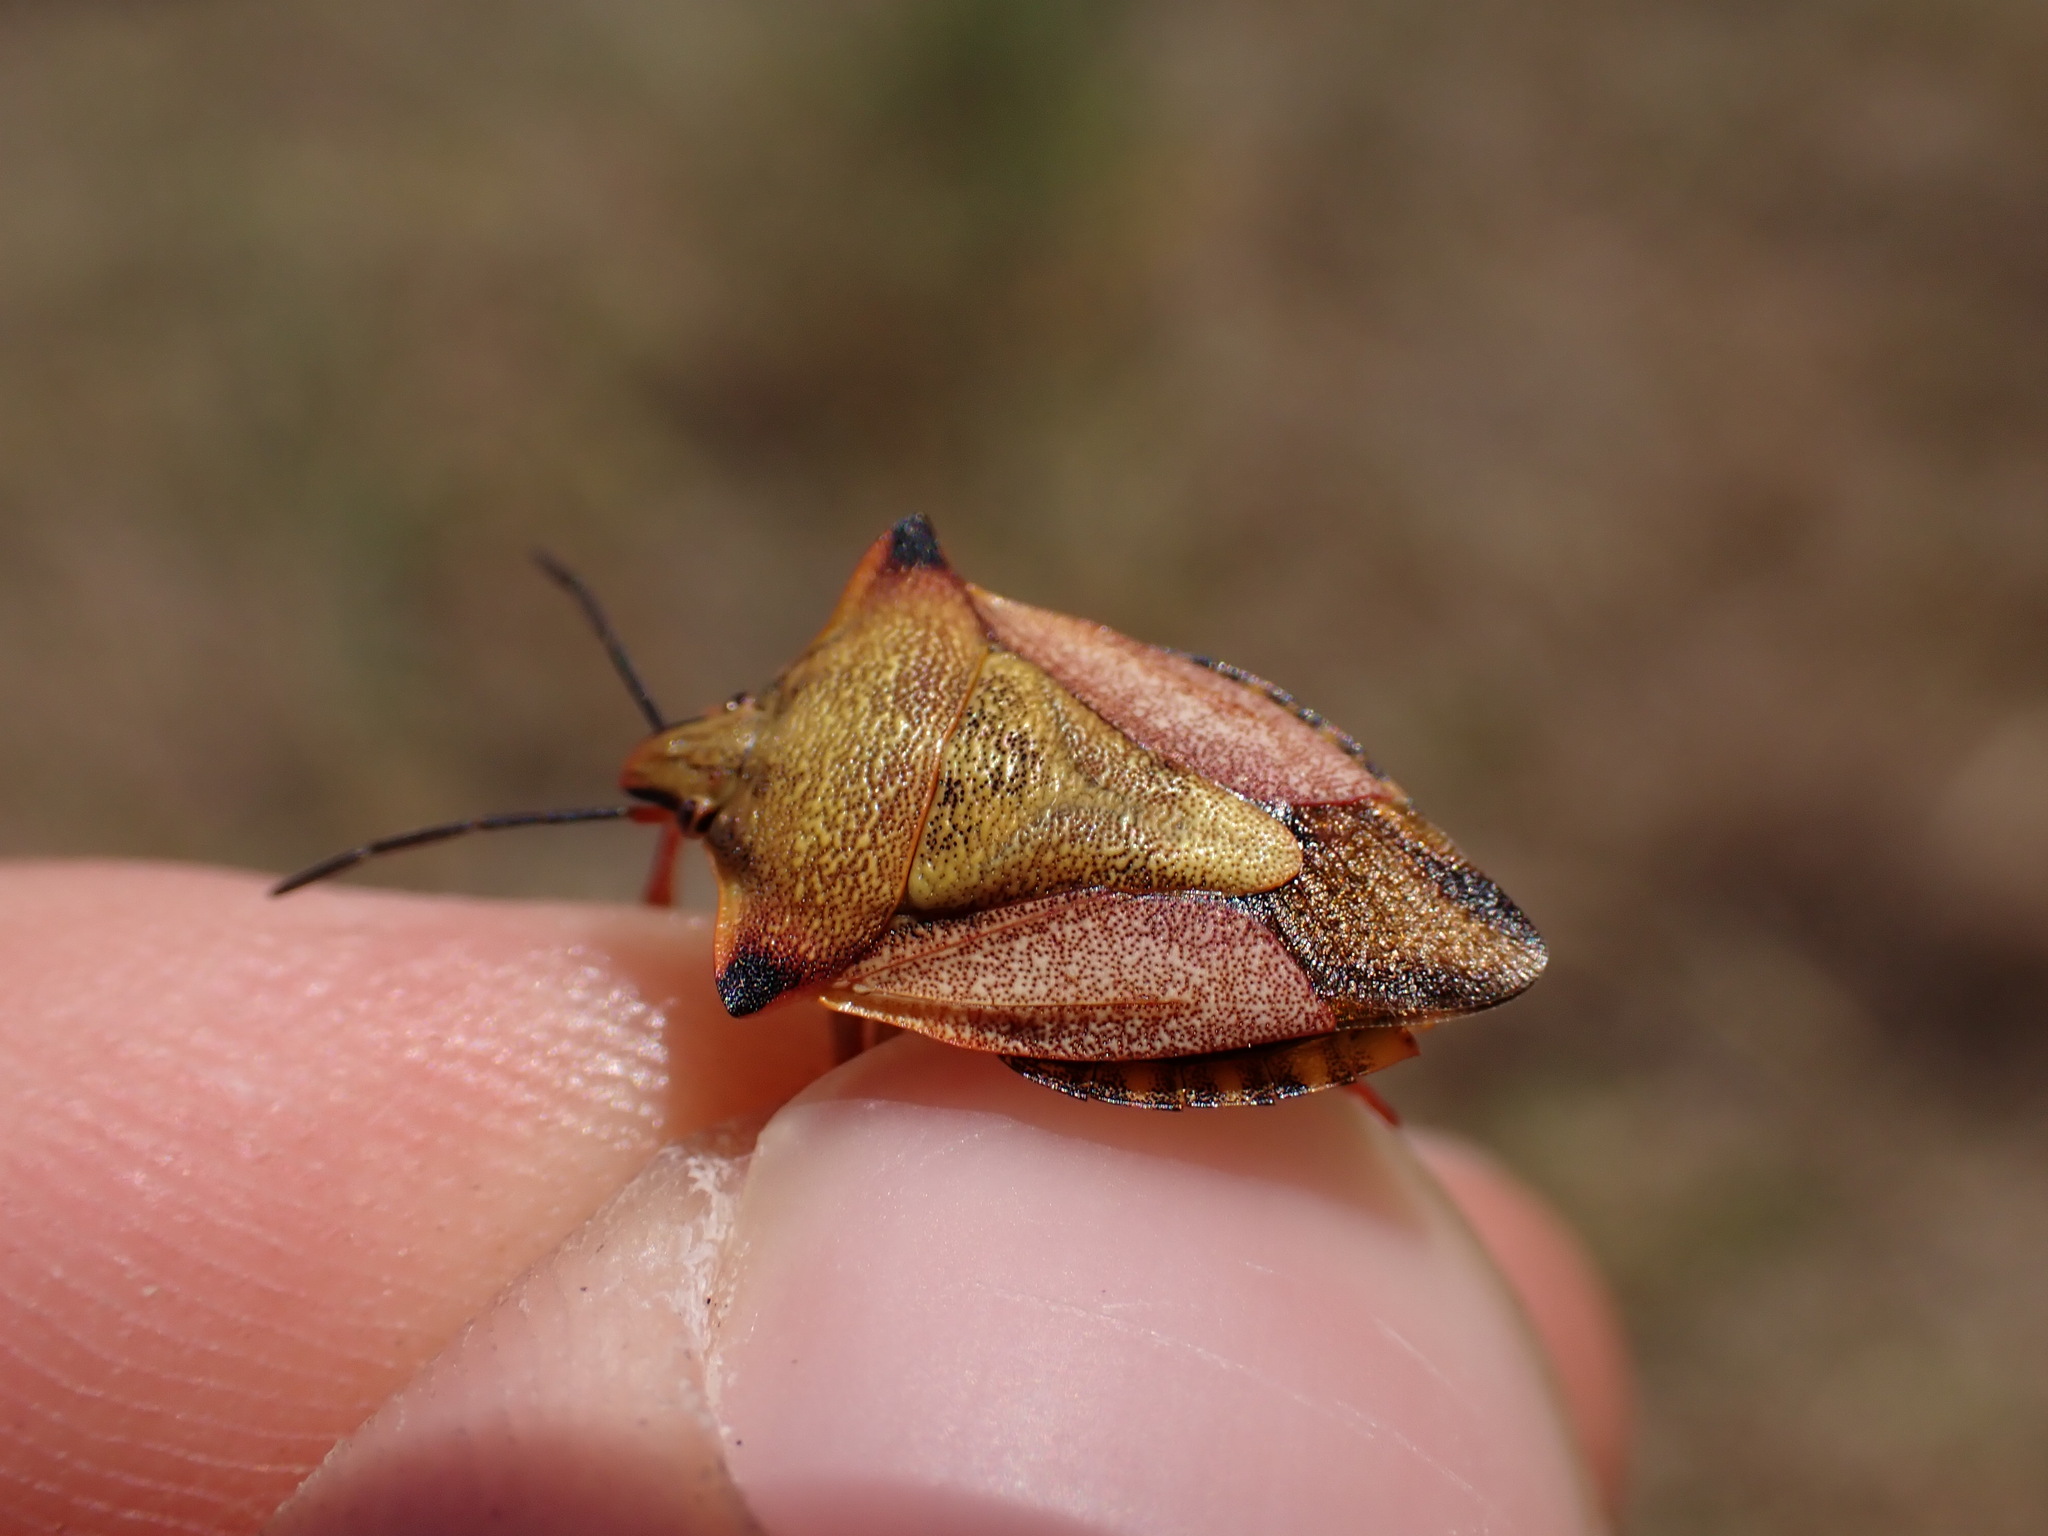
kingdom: Animalia
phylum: Arthropoda
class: Insecta
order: Hemiptera
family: Pentatomidae
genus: Carpocoris
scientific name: Carpocoris mediterraneus
